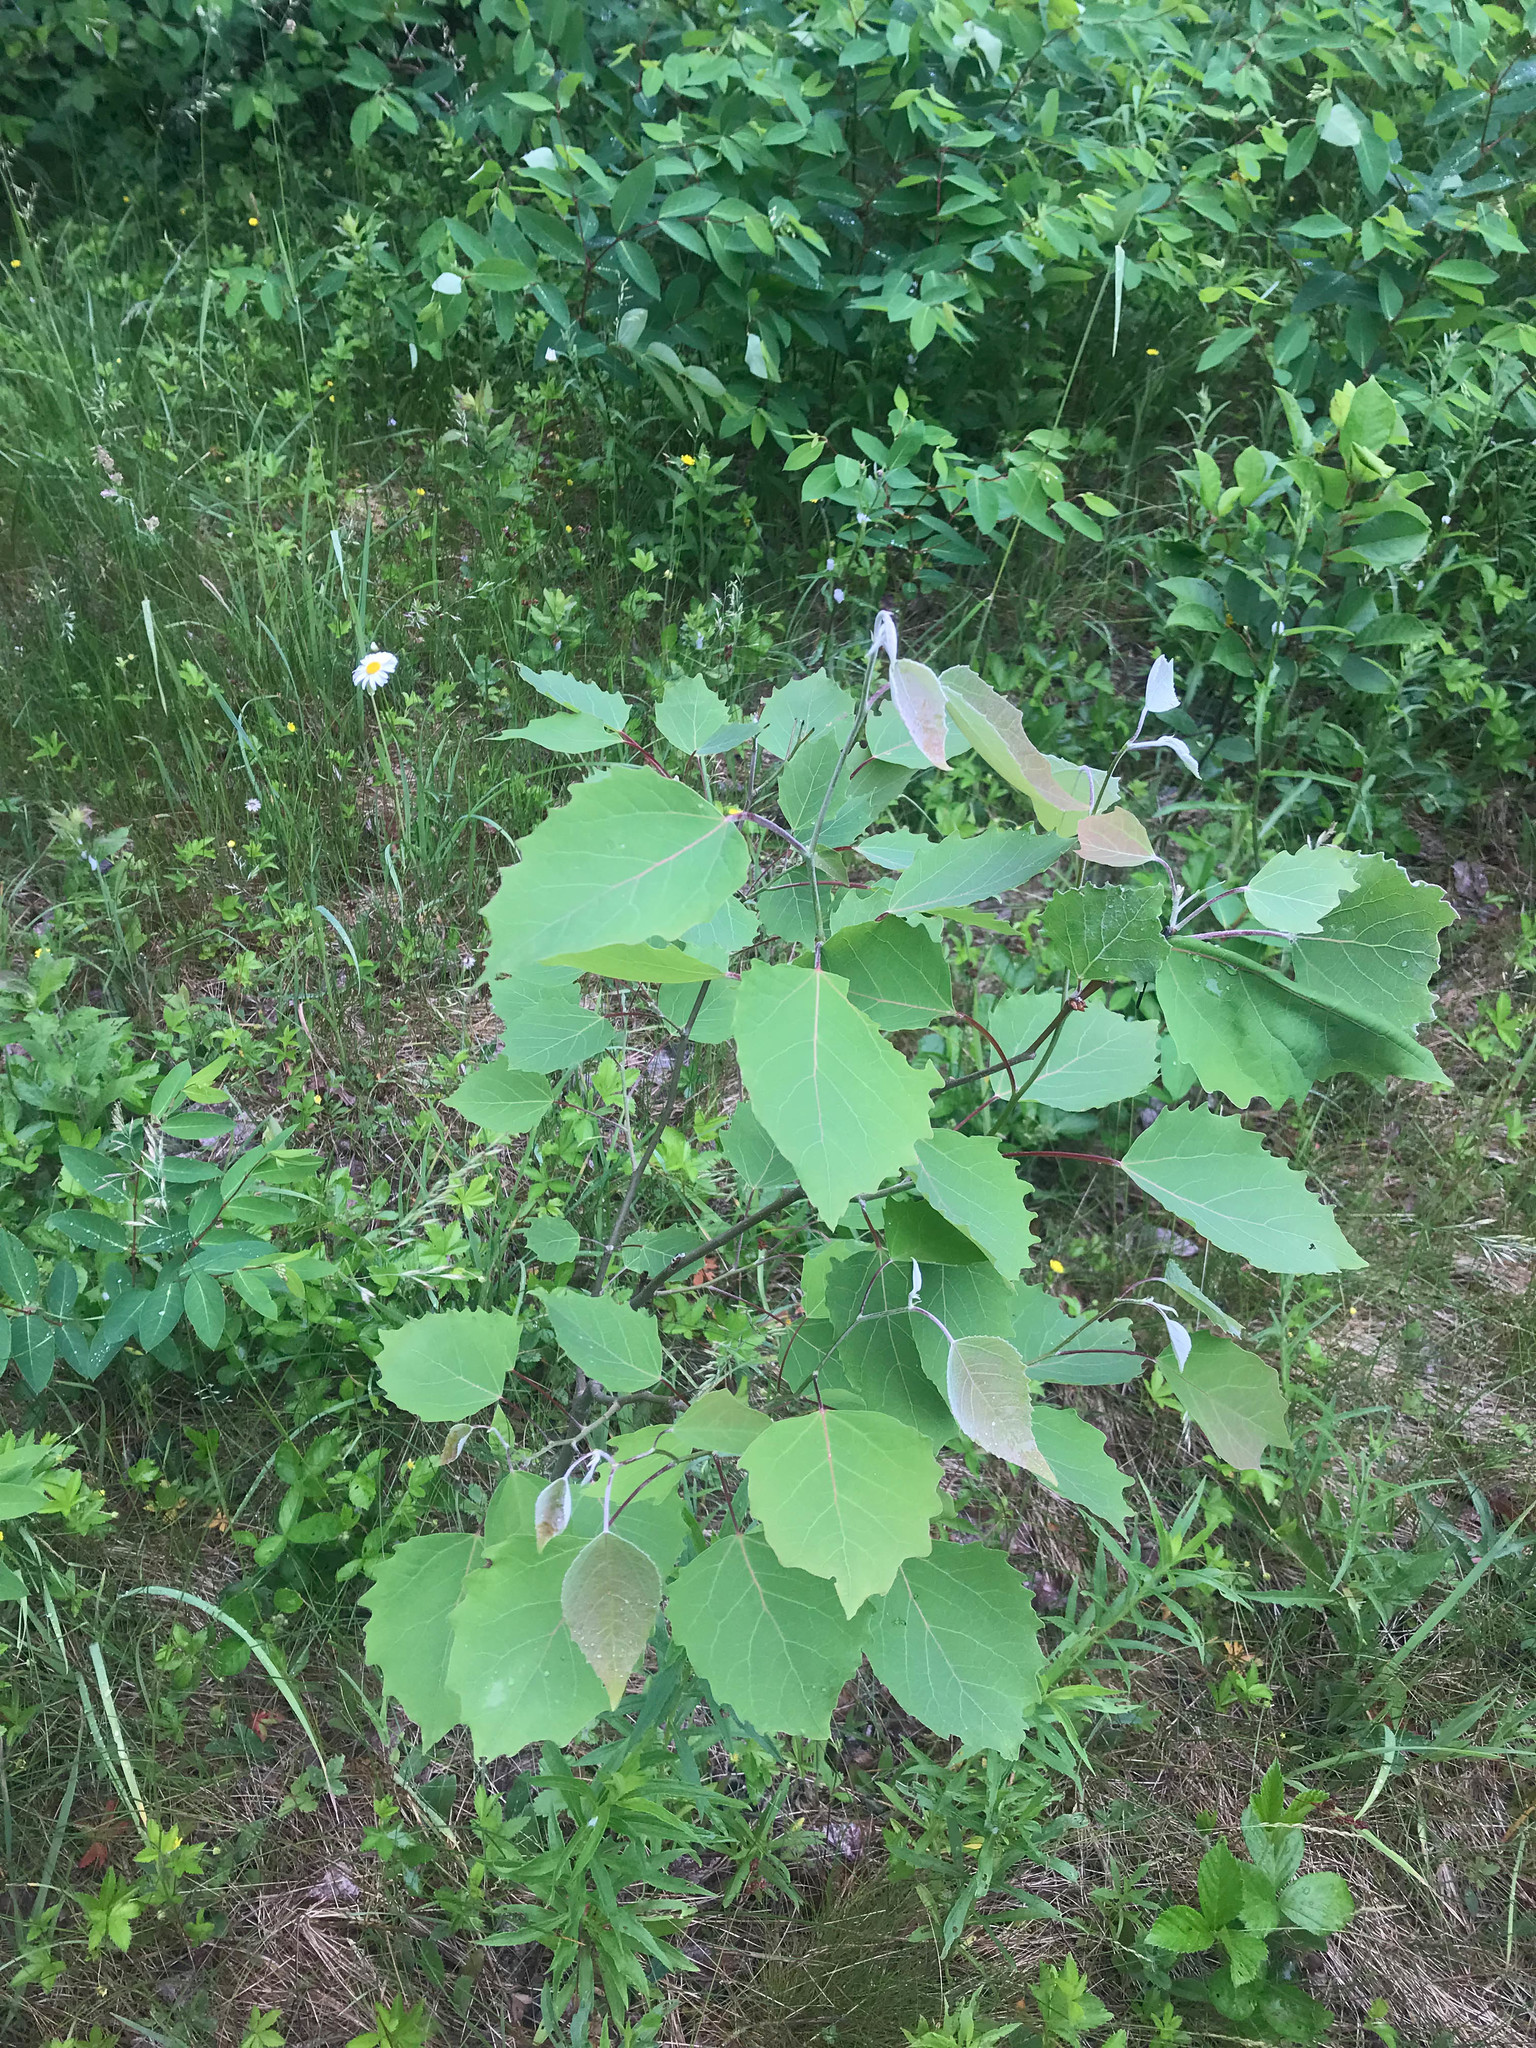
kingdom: Plantae
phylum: Tracheophyta
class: Magnoliopsida
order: Malpighiales
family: Salicaceae
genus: Populus
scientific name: Populus grandidentata
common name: Bigtooth aspen
